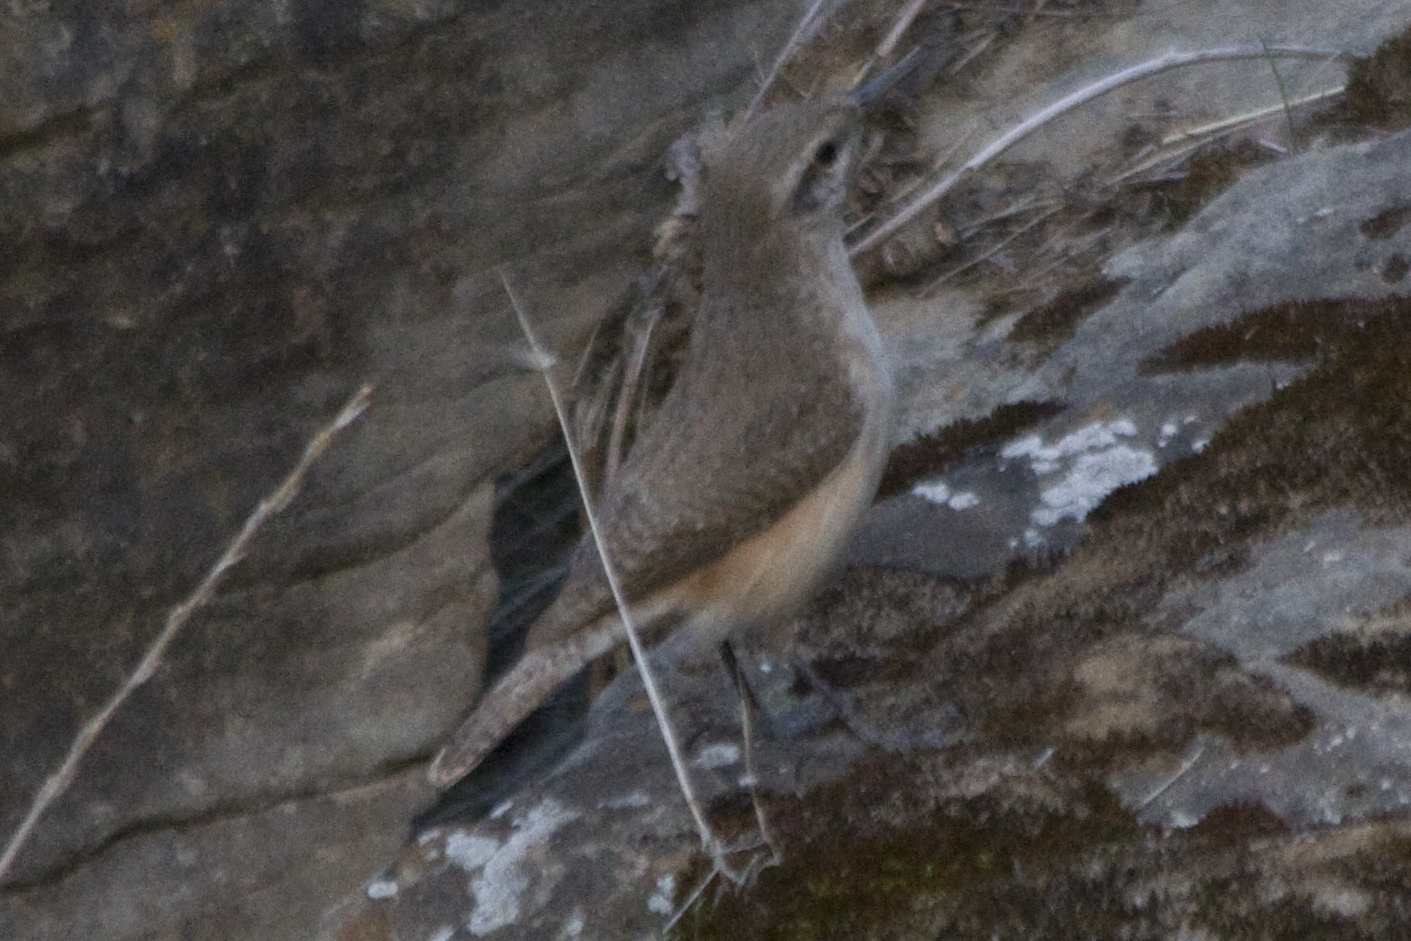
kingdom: Animalia
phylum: Chordata
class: Aves
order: Passeriformes
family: Troglodytidae
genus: Salpinctes
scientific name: Salpinctes obsoletus
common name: Rock wren
